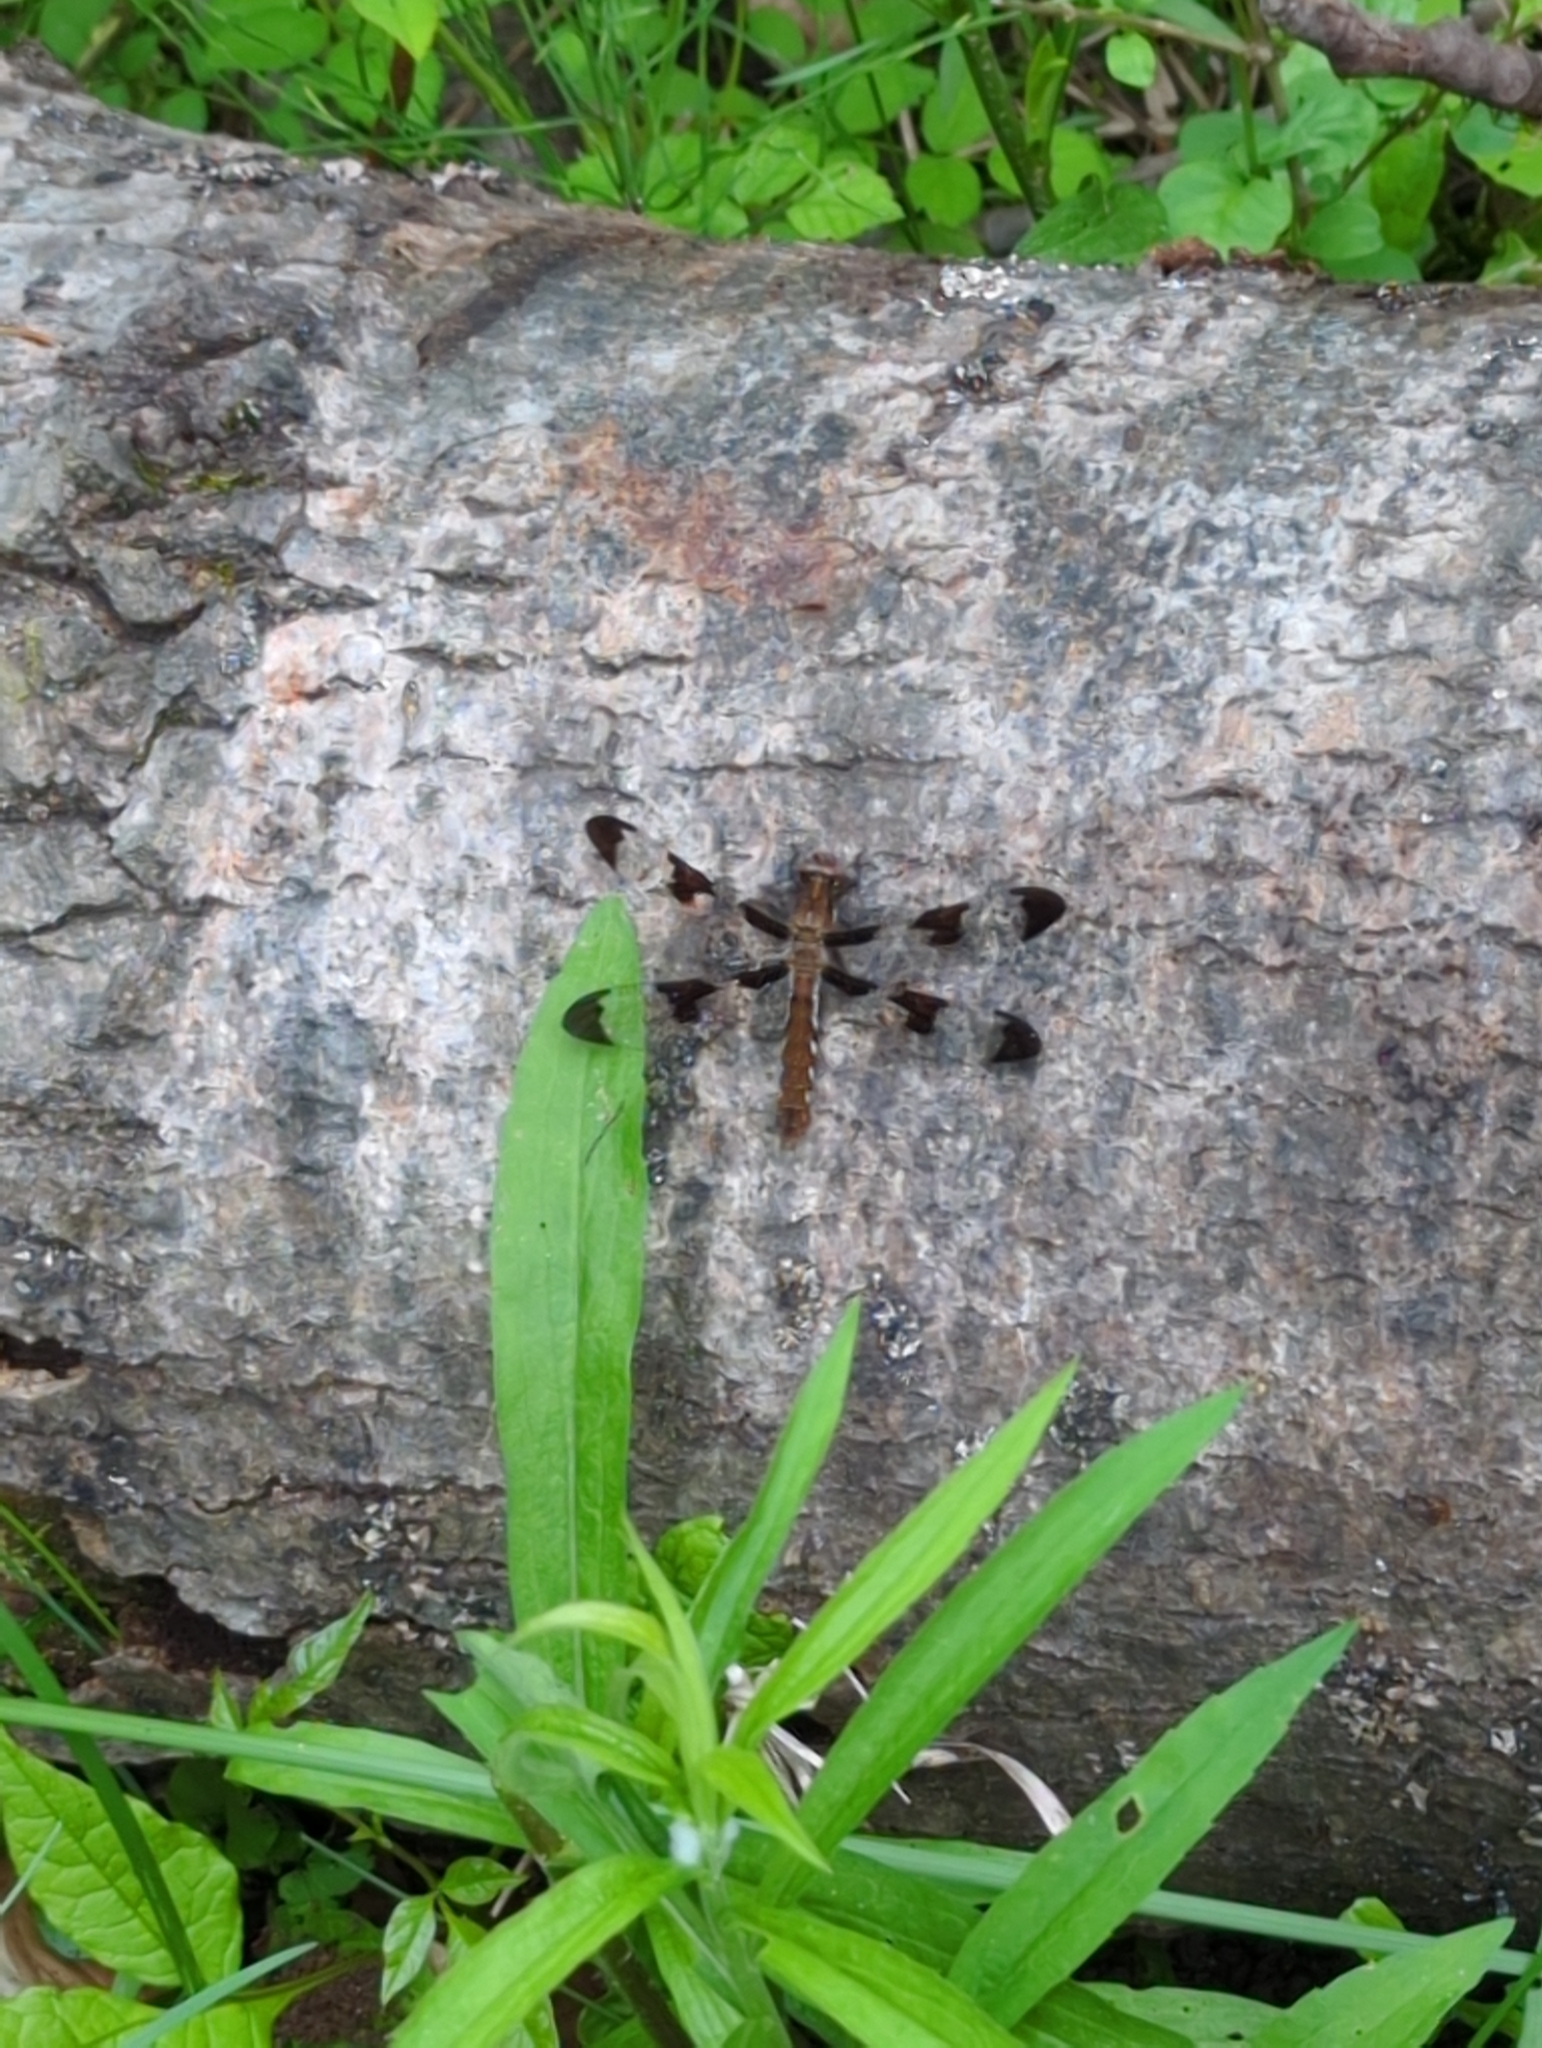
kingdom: Animalia
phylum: Arthropoda
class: Insecta
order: Odonata
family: Libellulidae
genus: Plathemis
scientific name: Plathemis lydia
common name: Common whitetail
